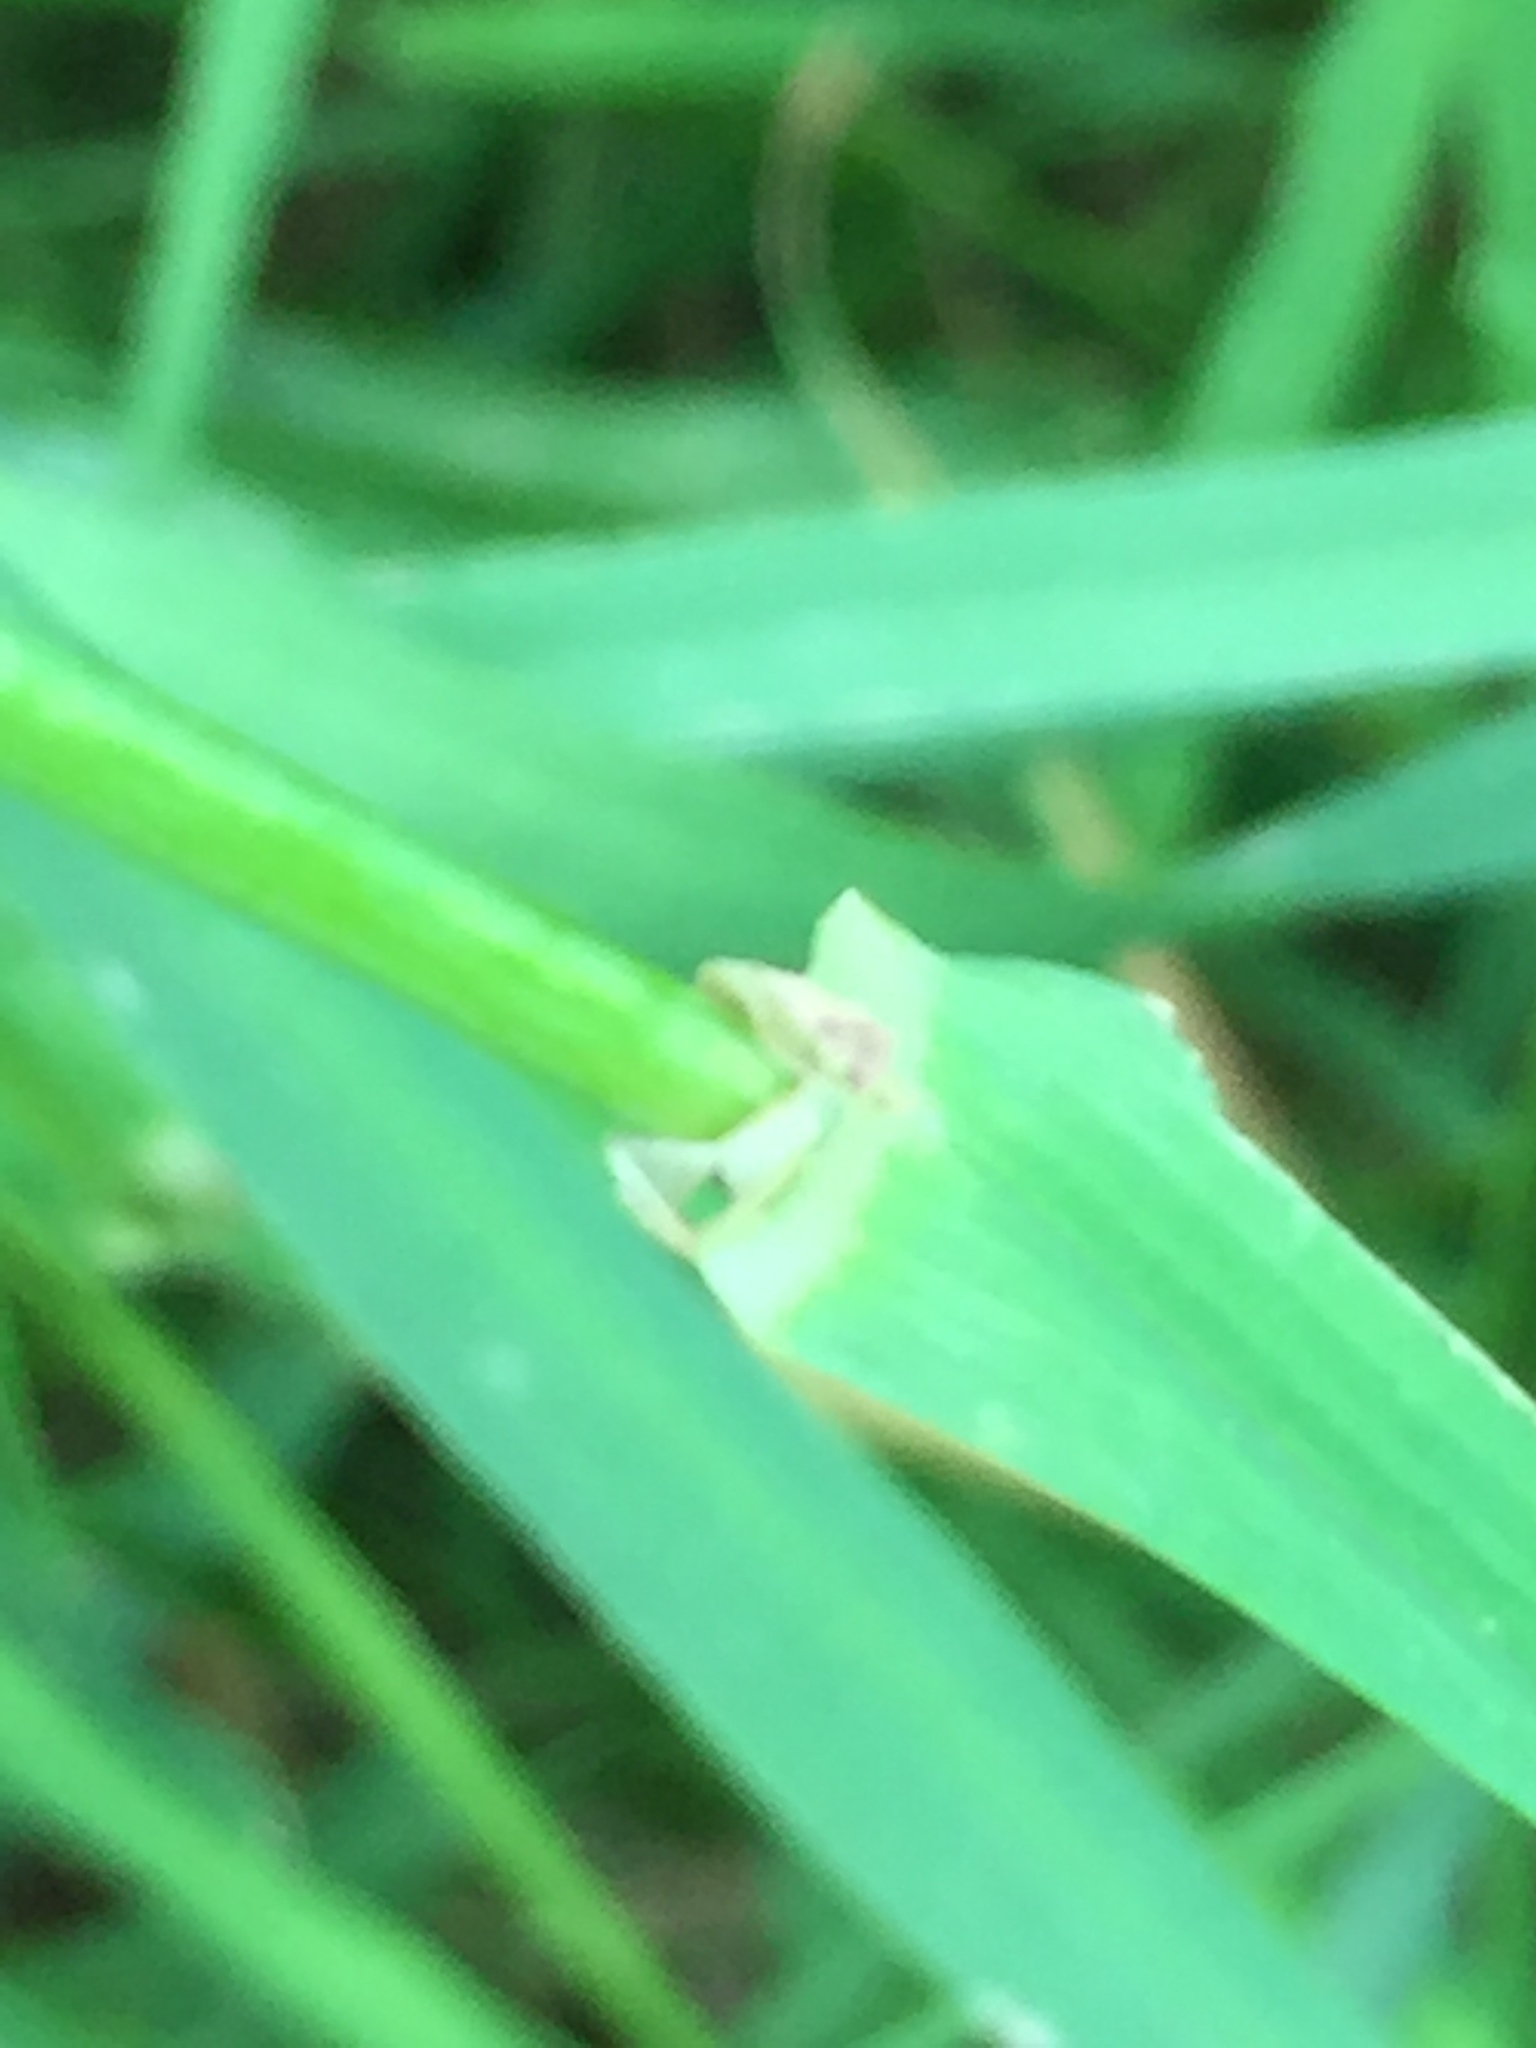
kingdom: Plantae
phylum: Tracheophyta
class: Liliopsida
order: Poales
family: Poaceae
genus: Dactylis
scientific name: Dactylis glomerata
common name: Orchardgrass
